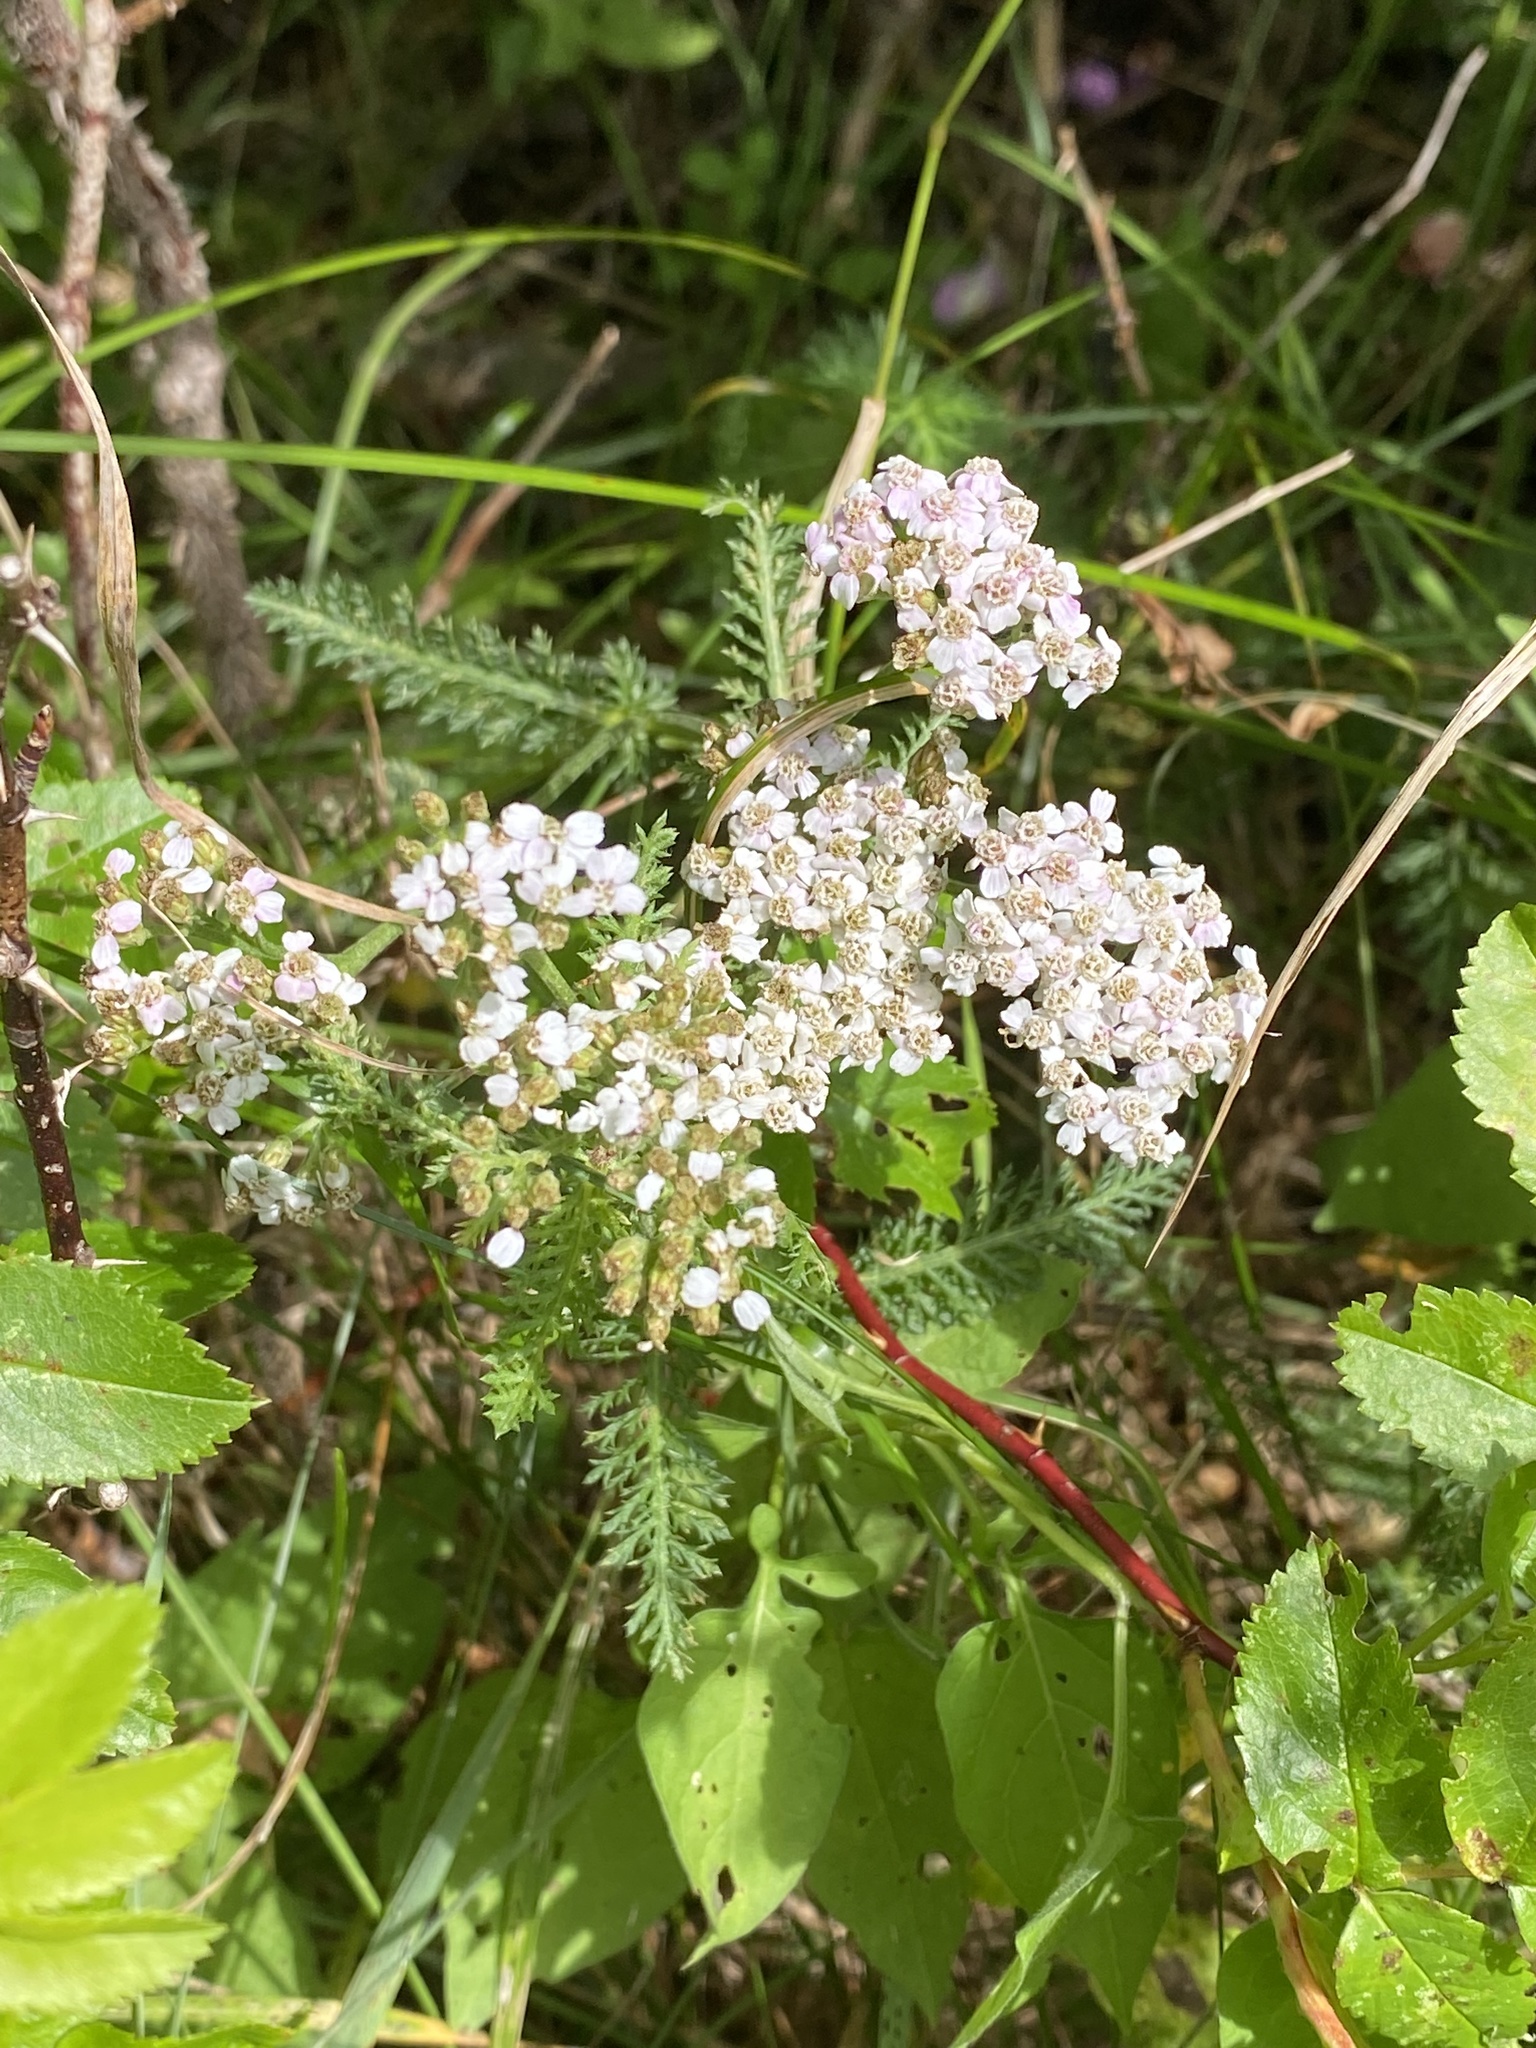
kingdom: Plantae
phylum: Tracheophyta
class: Magnoliopsida
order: Asterales
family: Asteraceae
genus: Achillea
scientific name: Achillea millefolium
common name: Yarrow
